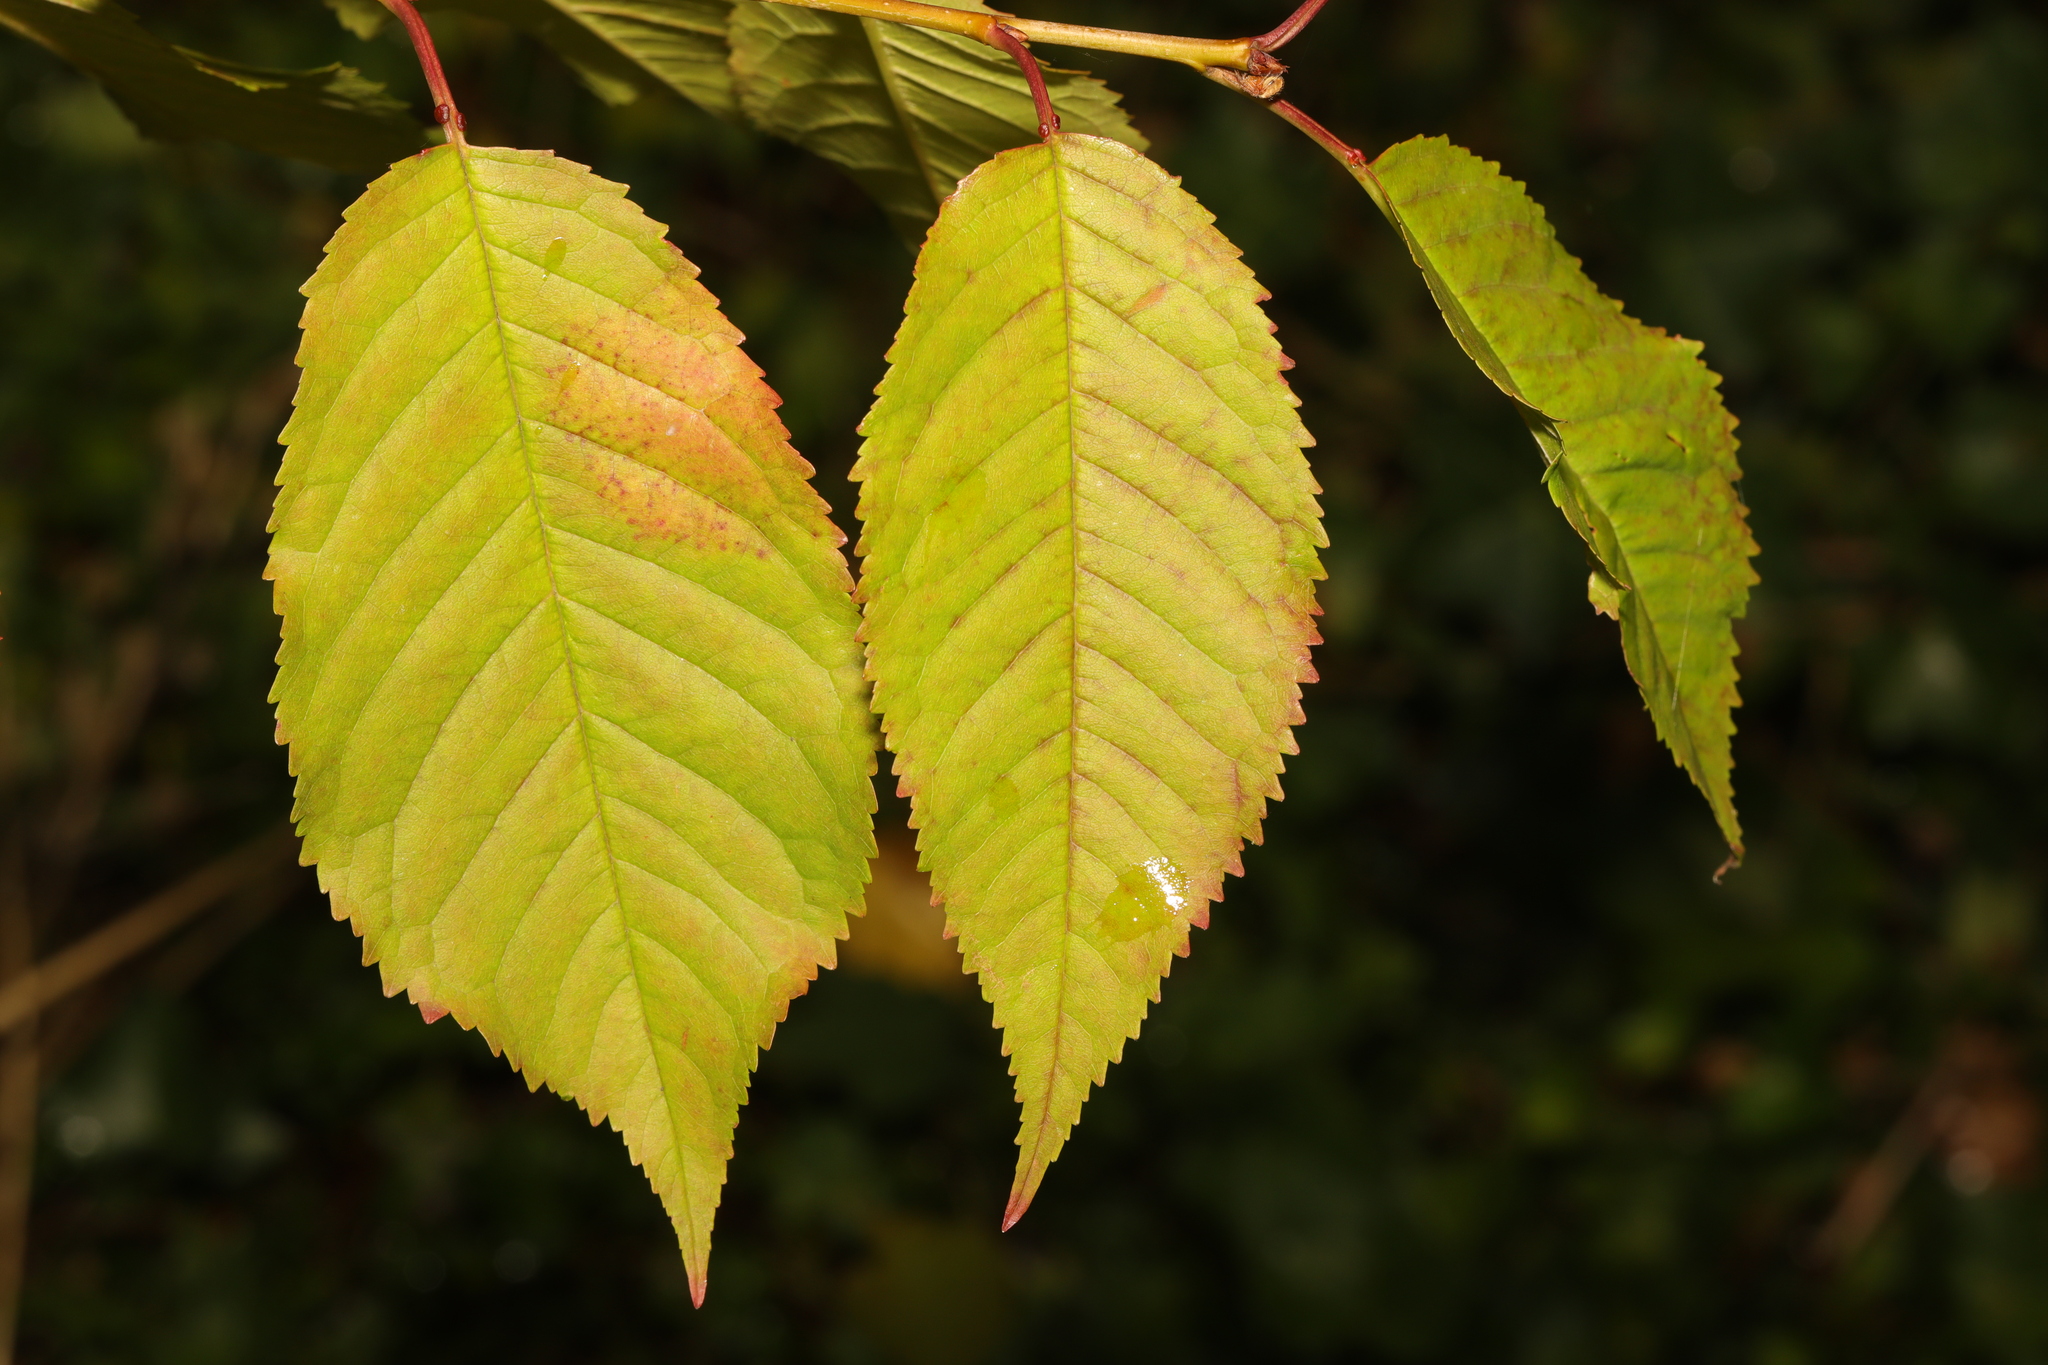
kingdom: Plantae
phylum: Tracheophyta
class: Magnoliopsida
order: Rosales
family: Rosaceae
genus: Prunus
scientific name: Prunus avium
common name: Sweet cherry
